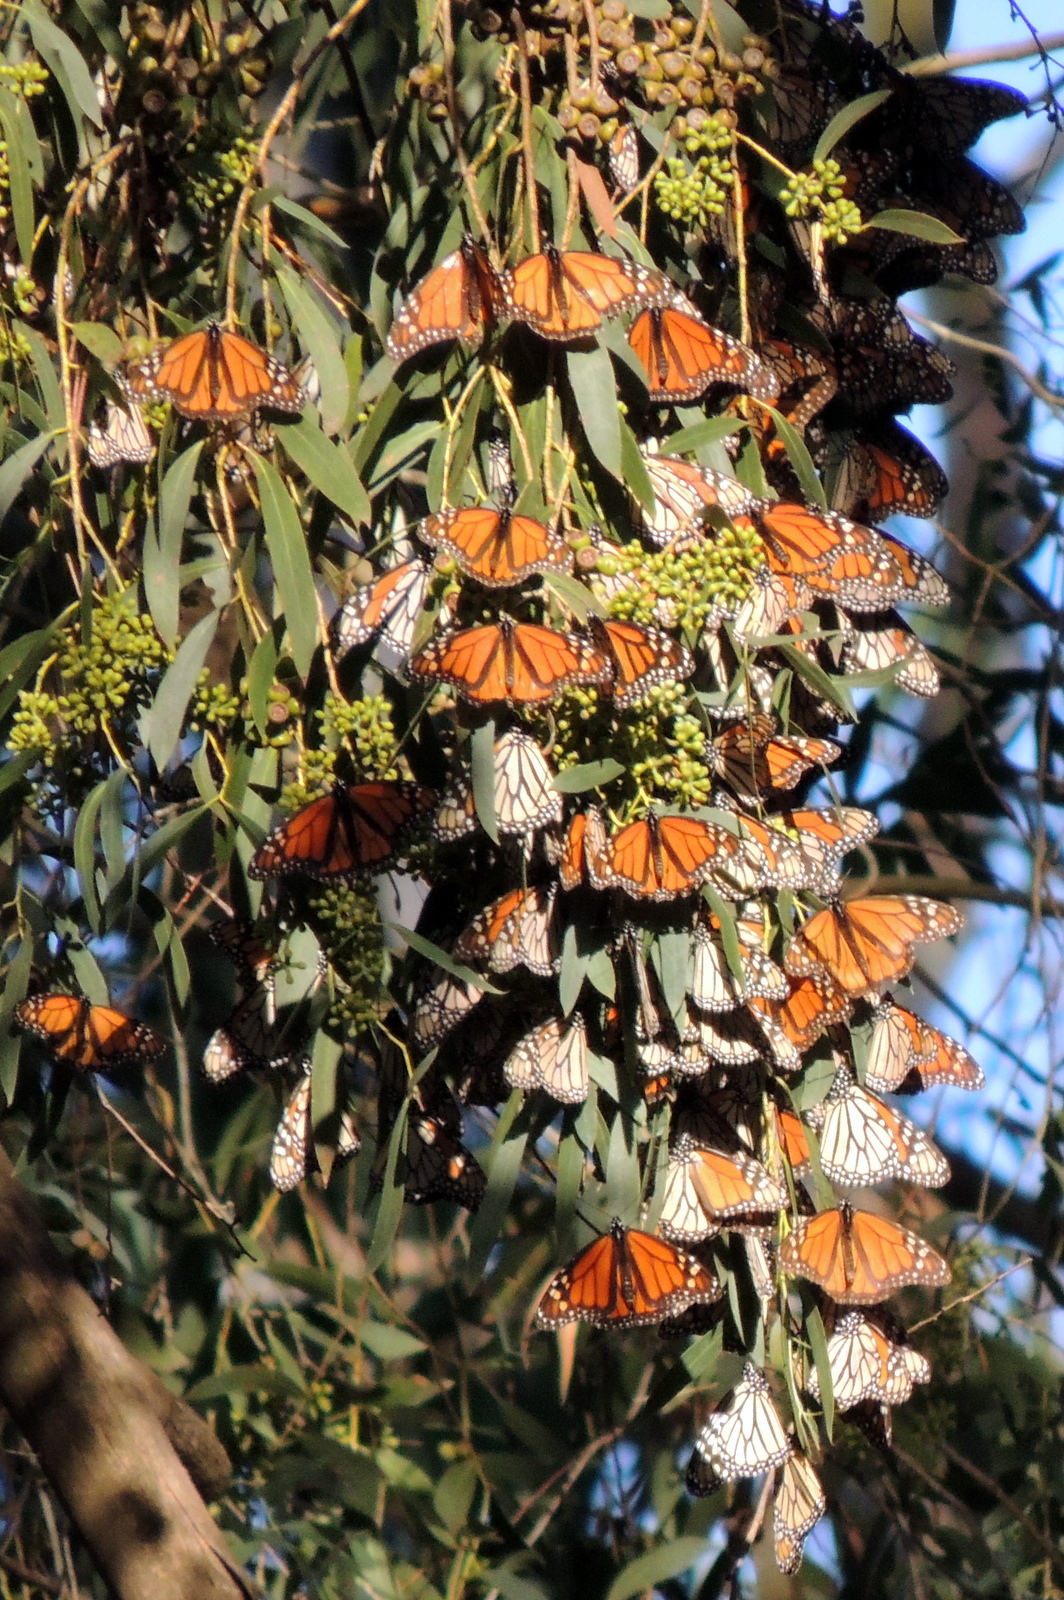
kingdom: Animalia
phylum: Arthropoda
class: Insecta
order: Lepidoptera
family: Nymphalidae
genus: Danaus
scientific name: Danaus plexippus
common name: Monarch
